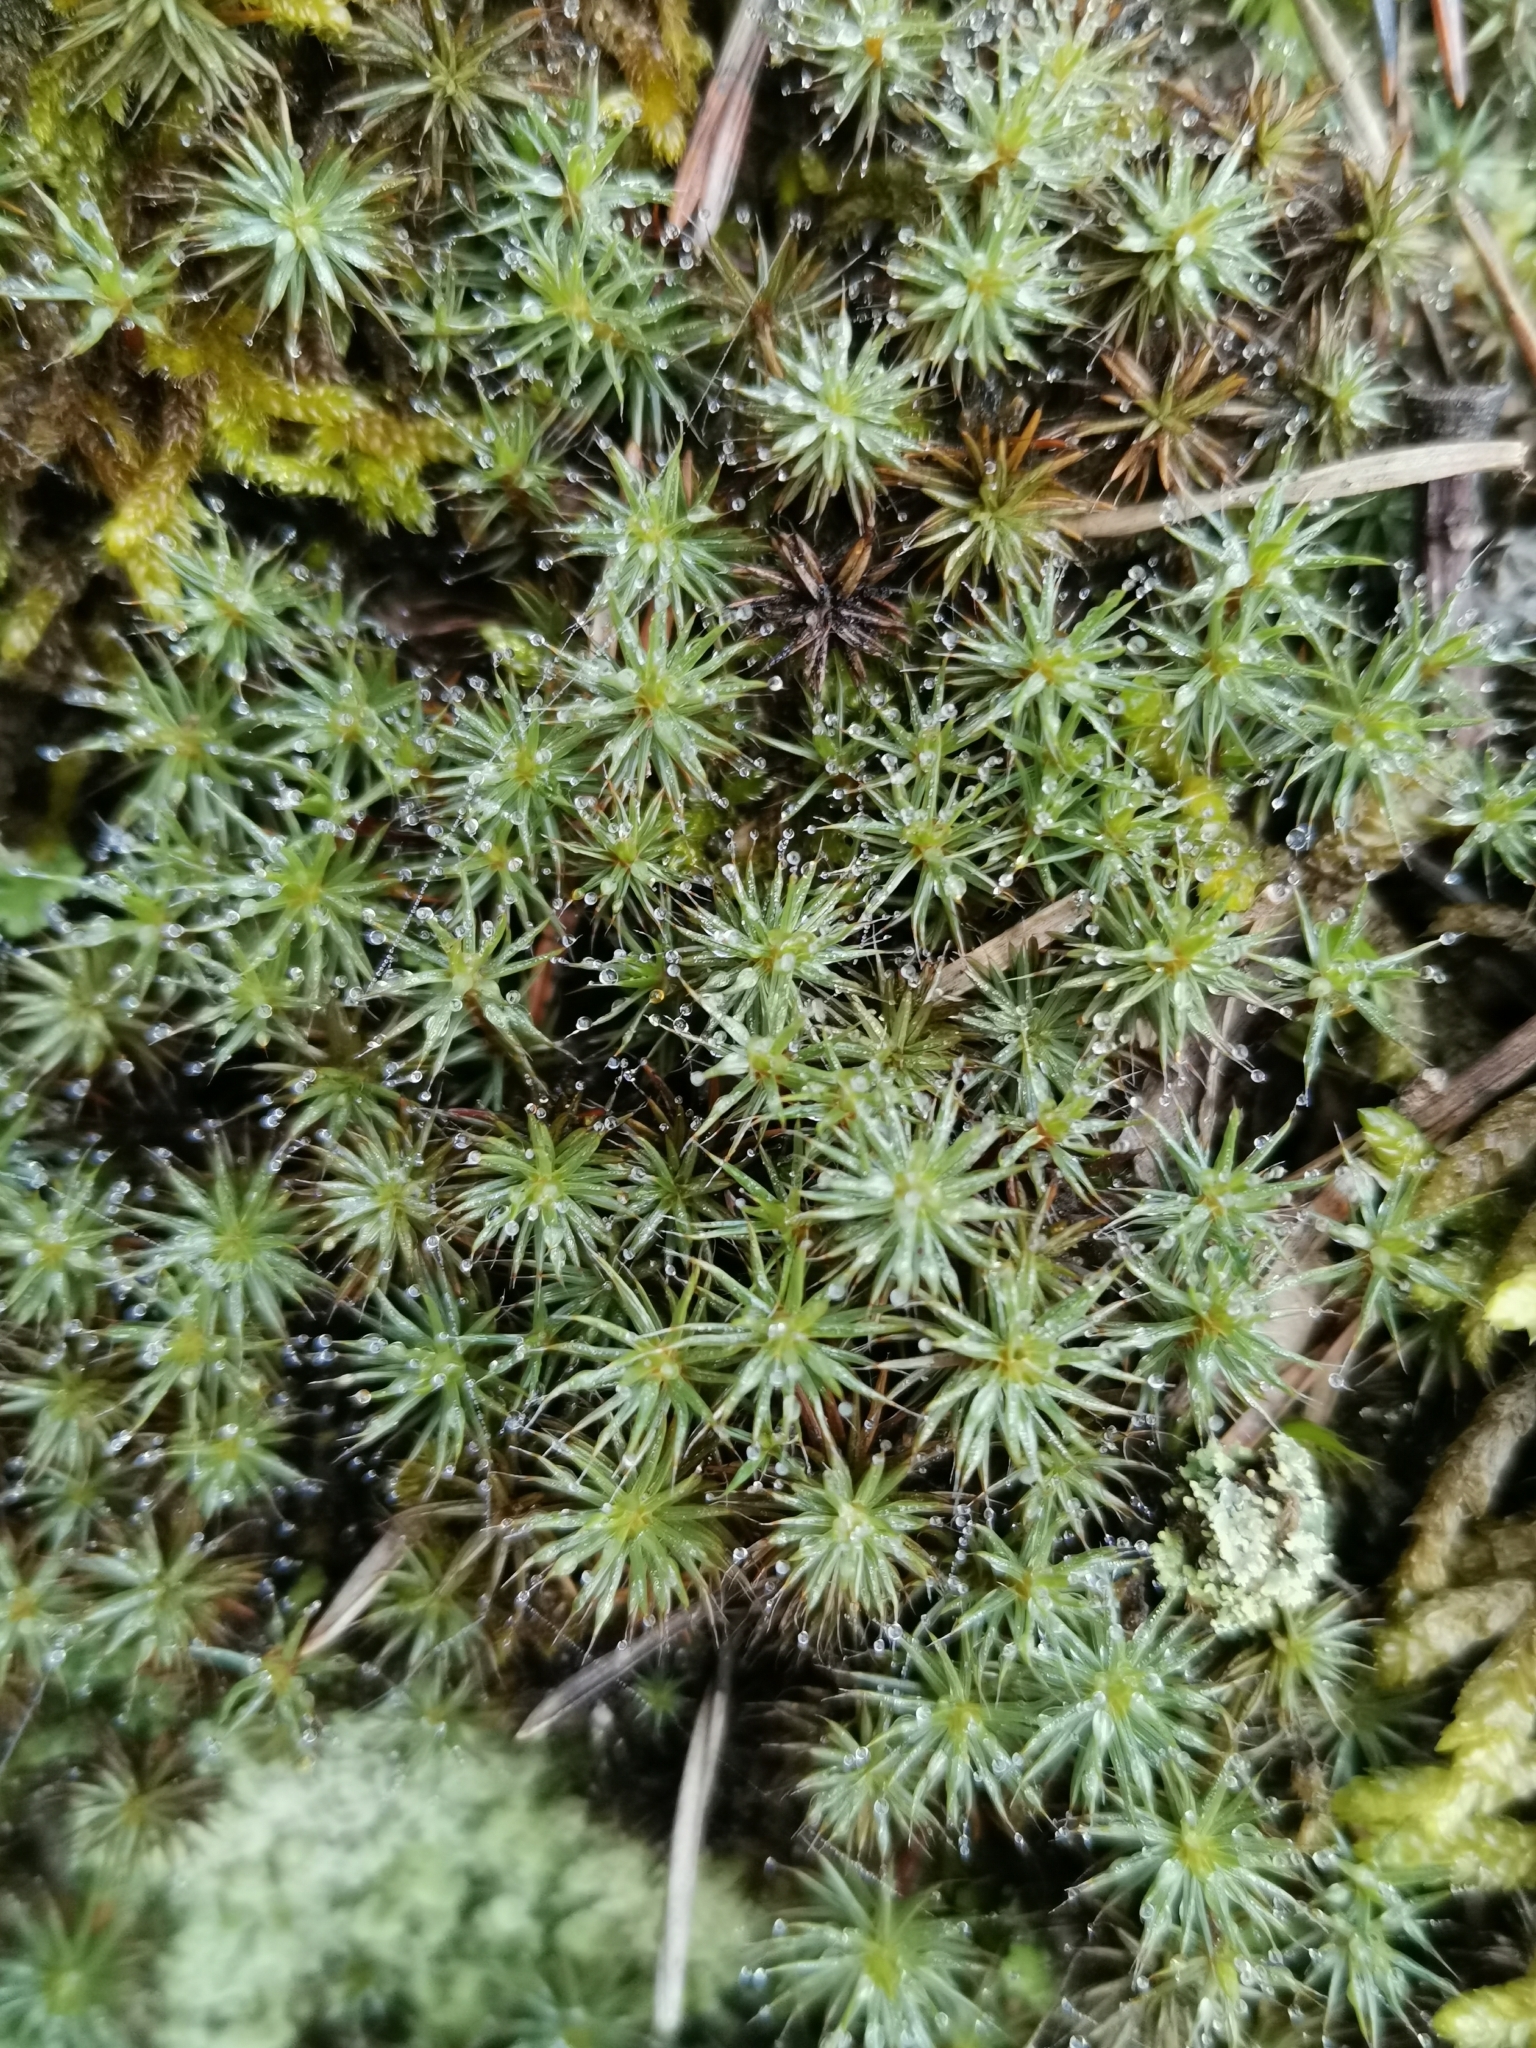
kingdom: Plantae
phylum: Bryophyta
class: Polytrichopsida
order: Polytrichales
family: Polytrichaceae
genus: Polytrichum
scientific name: Polytrichum piliferum
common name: Bristly haircap
